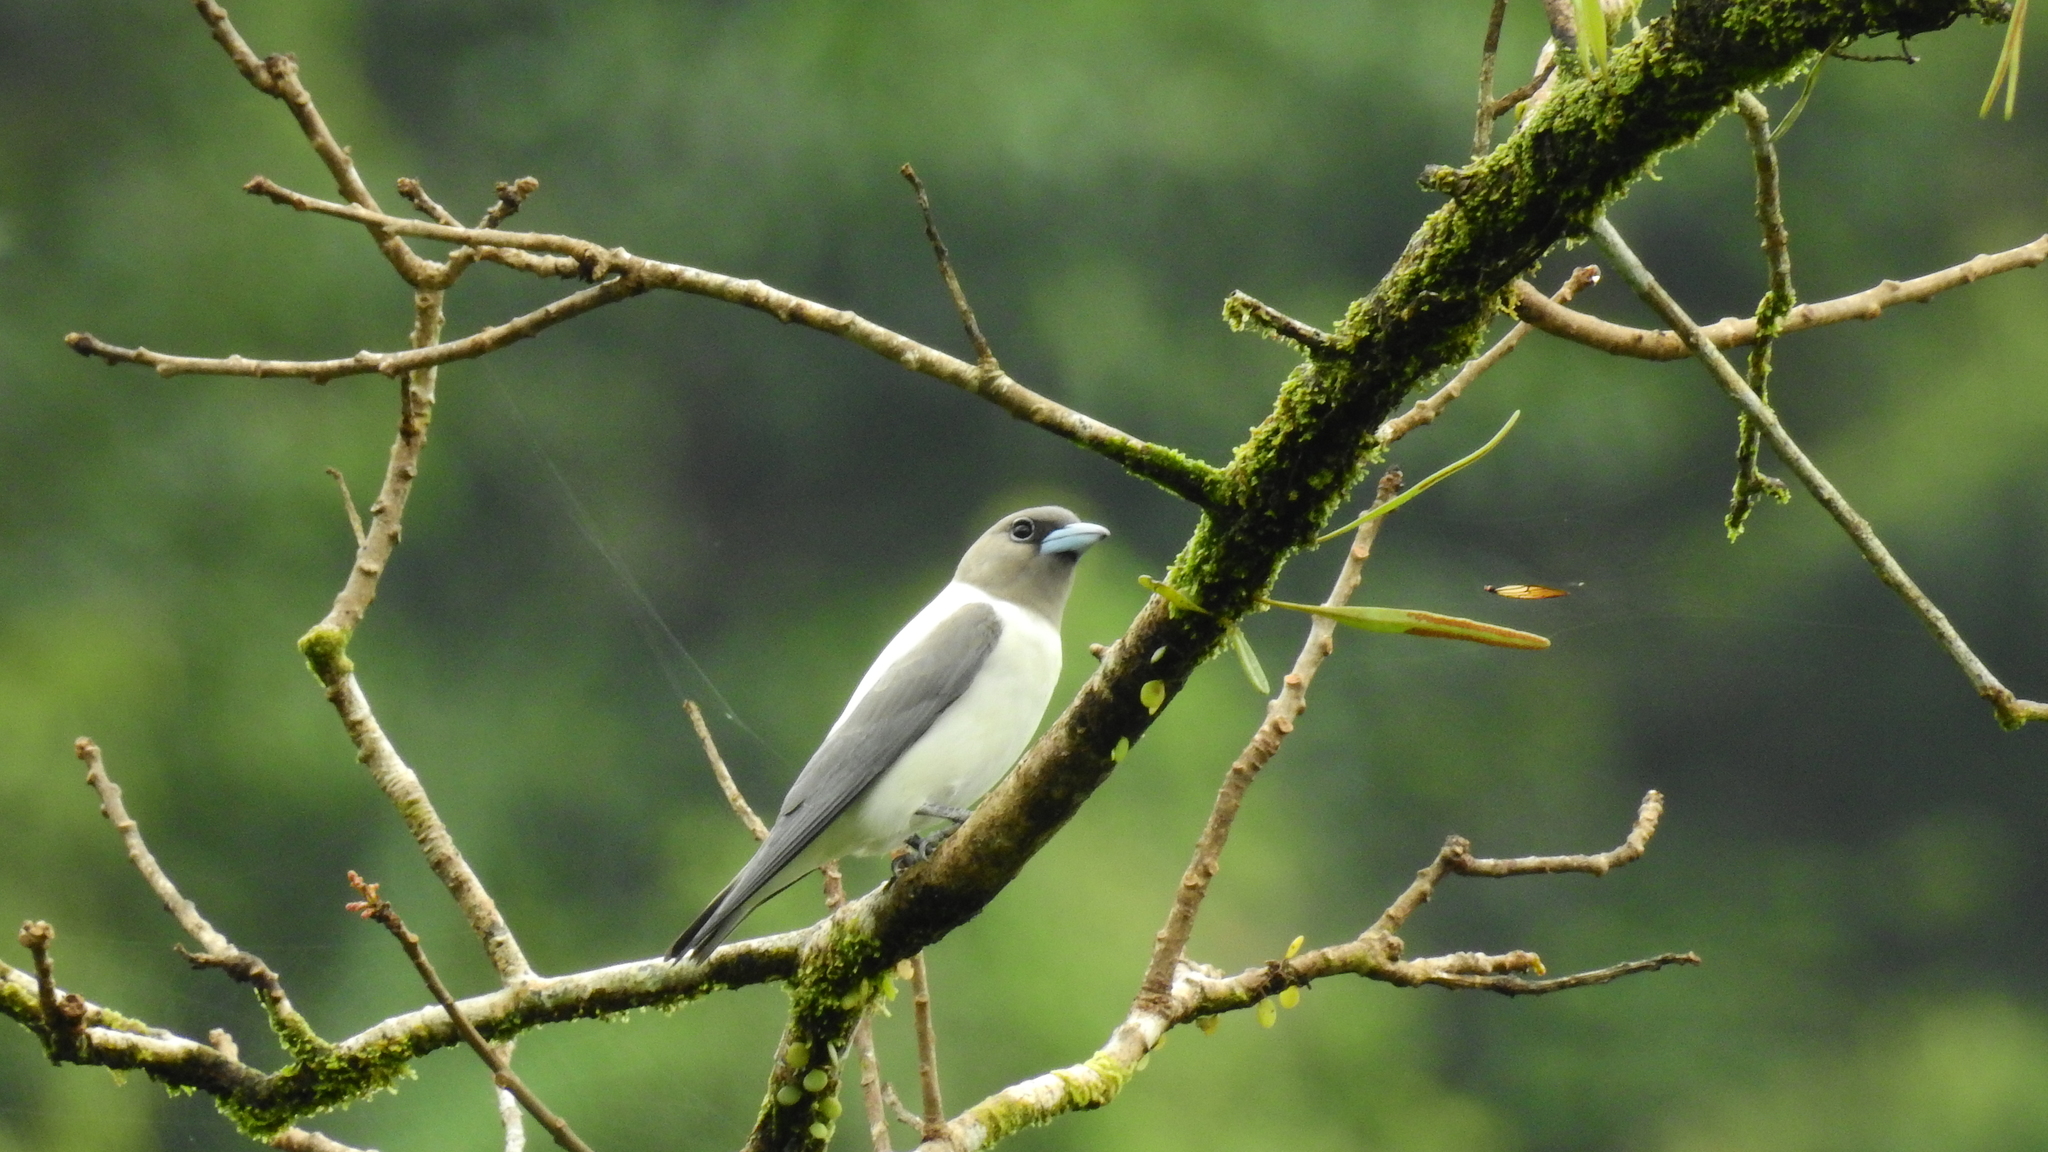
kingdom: Animalia
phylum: Chordata
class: Aves
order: Passeriformes
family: Artamidae
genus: Artamus
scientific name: Artamus monachus
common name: Ivory-backed woodswallow
